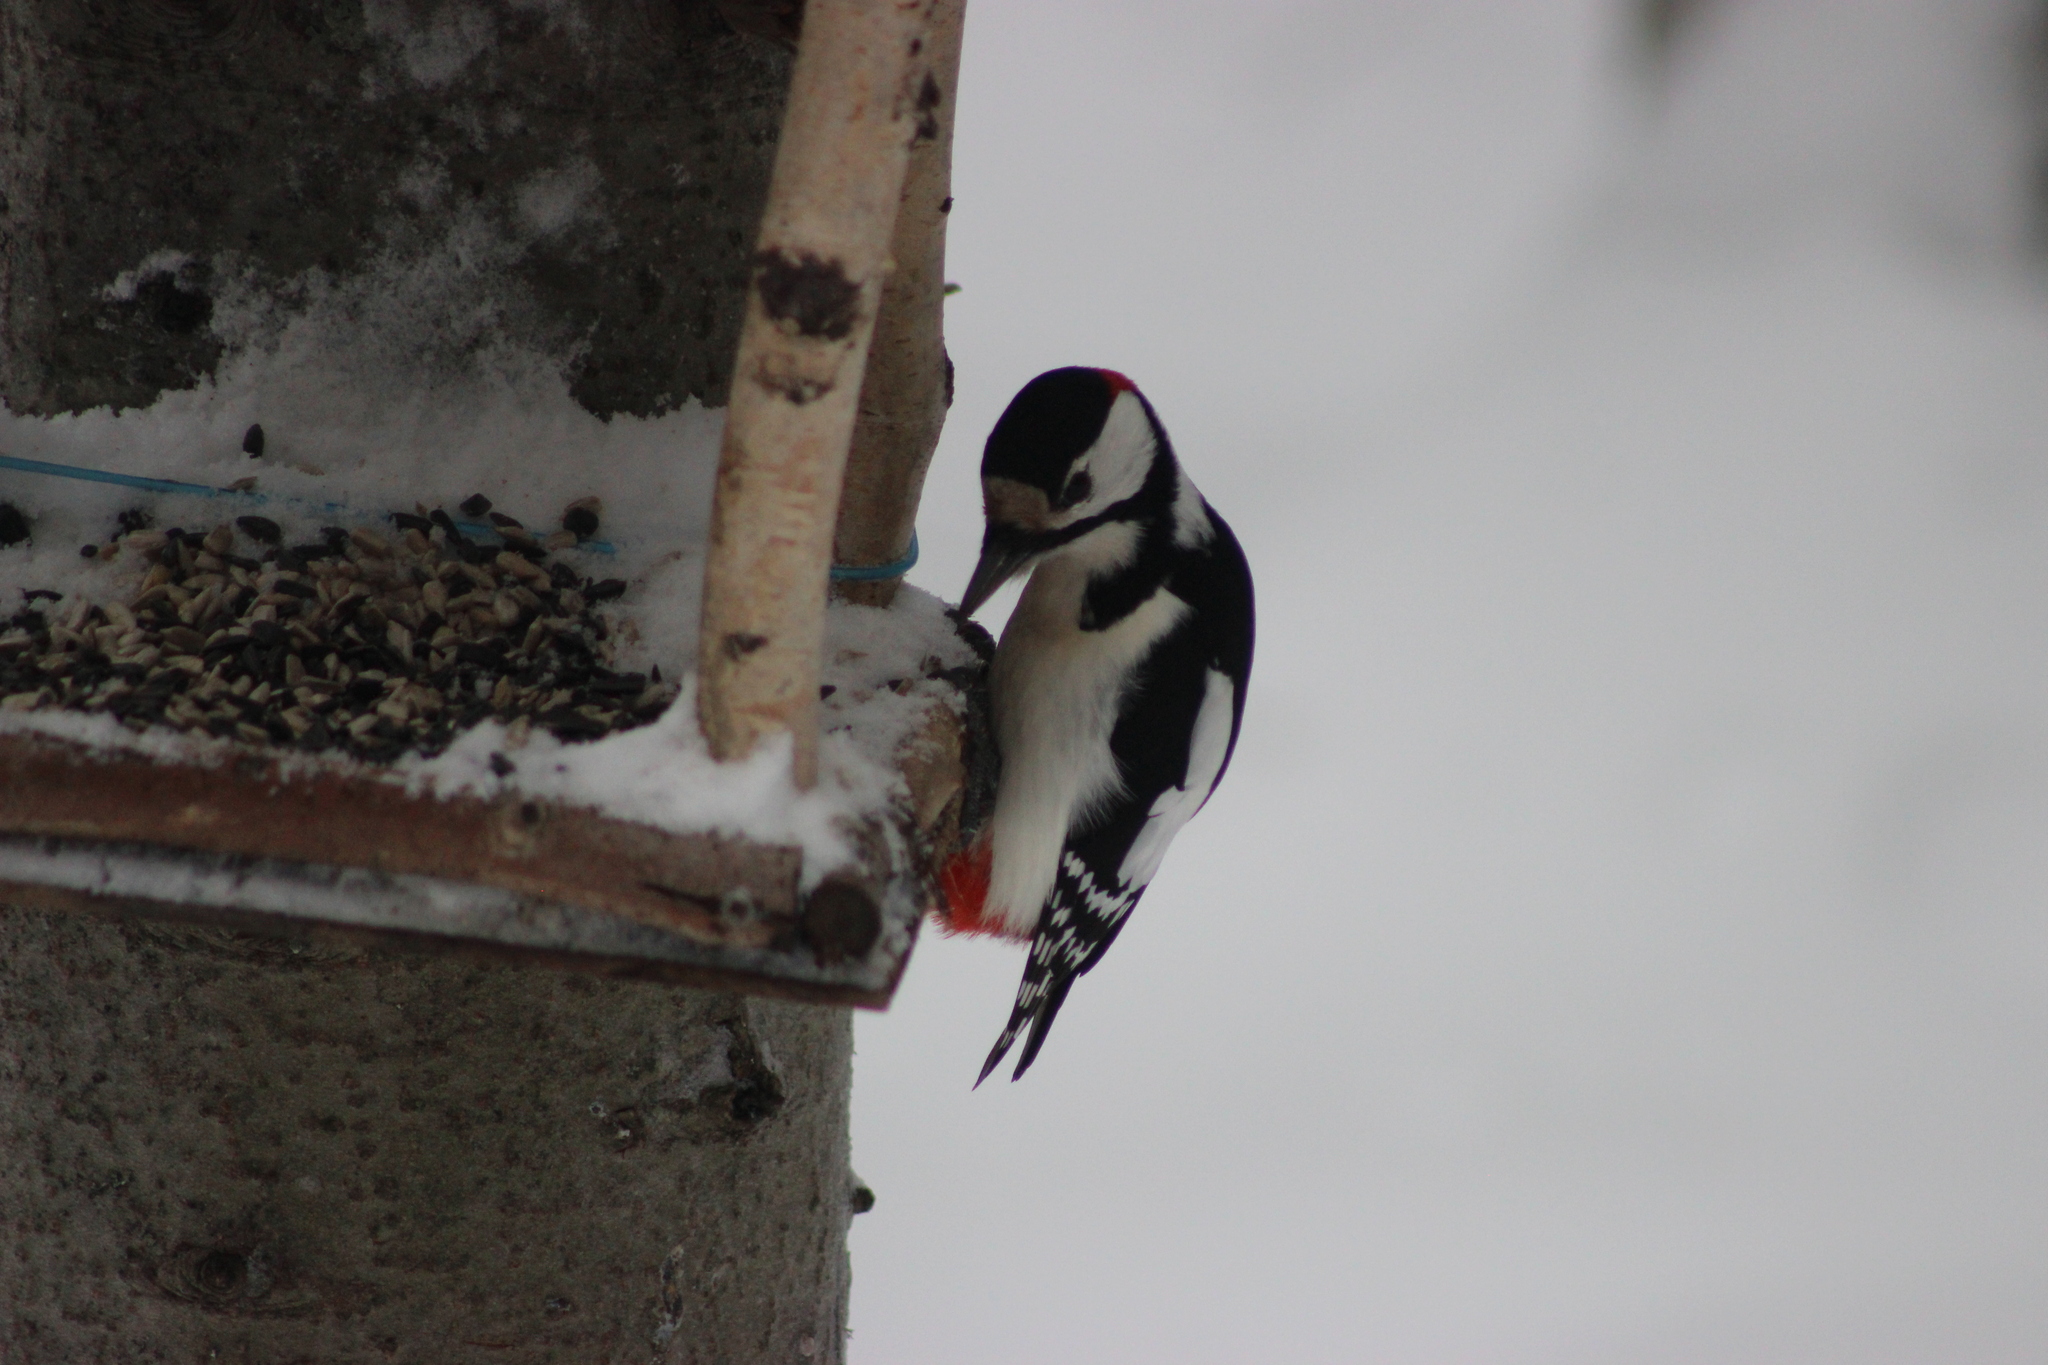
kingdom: Animalia
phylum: Chordata
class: Aves
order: Piciformes
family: Picidae
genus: Dendrocopos
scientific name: Dendrocopos major
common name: Great spotted woodpecker
